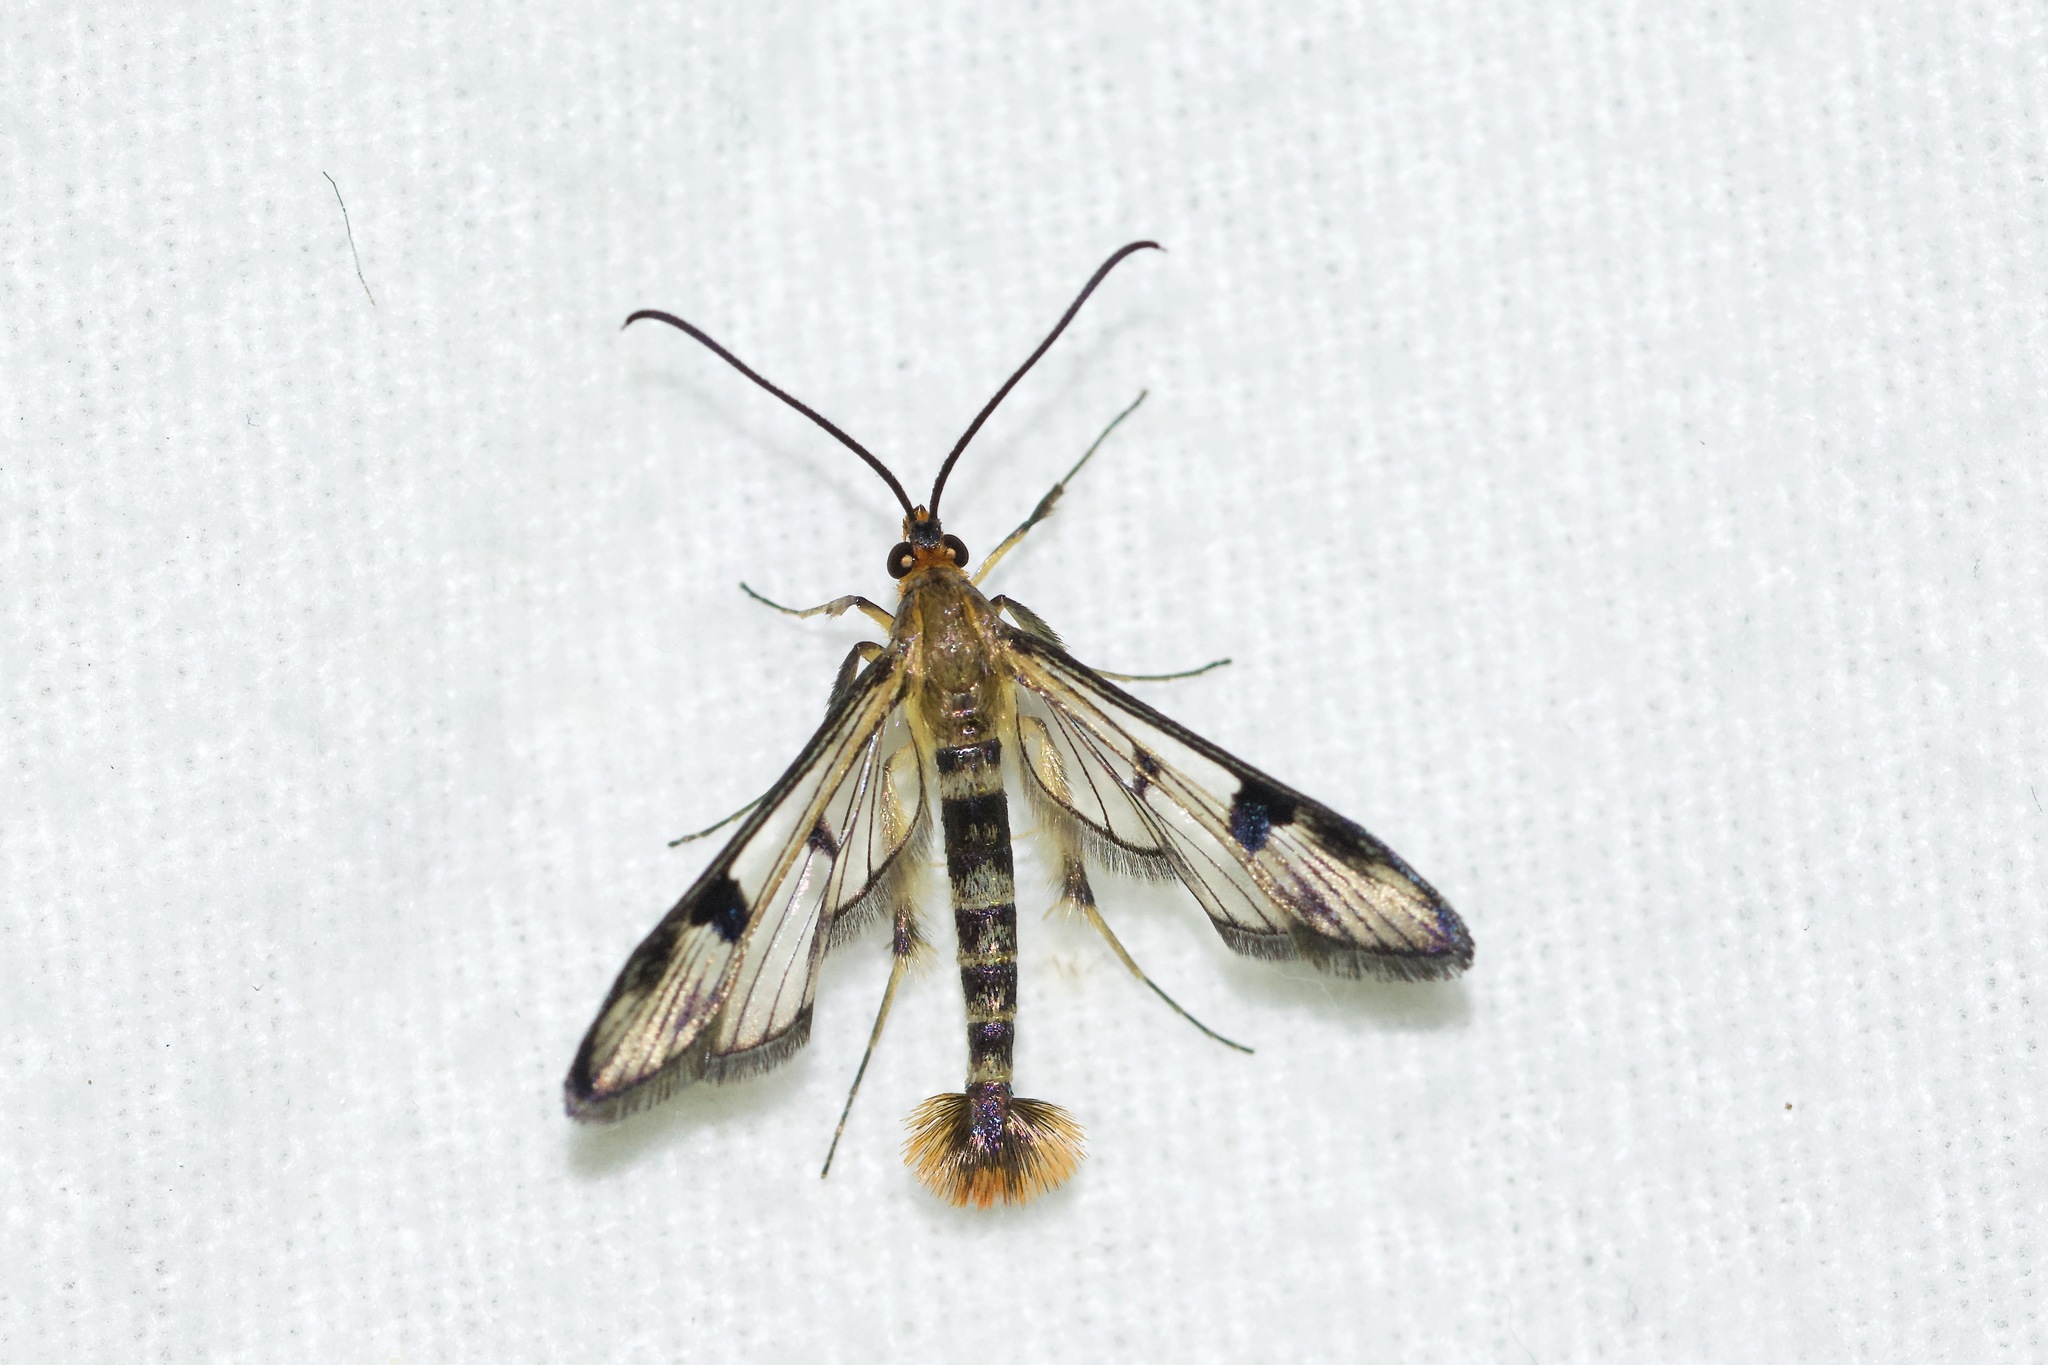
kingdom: Animalia
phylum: Arthropoda
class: Insecta
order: Lepidoptera
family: Sesiidae
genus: Synanthedon
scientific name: Synanthedon acerni
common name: Maple callus borer moth
